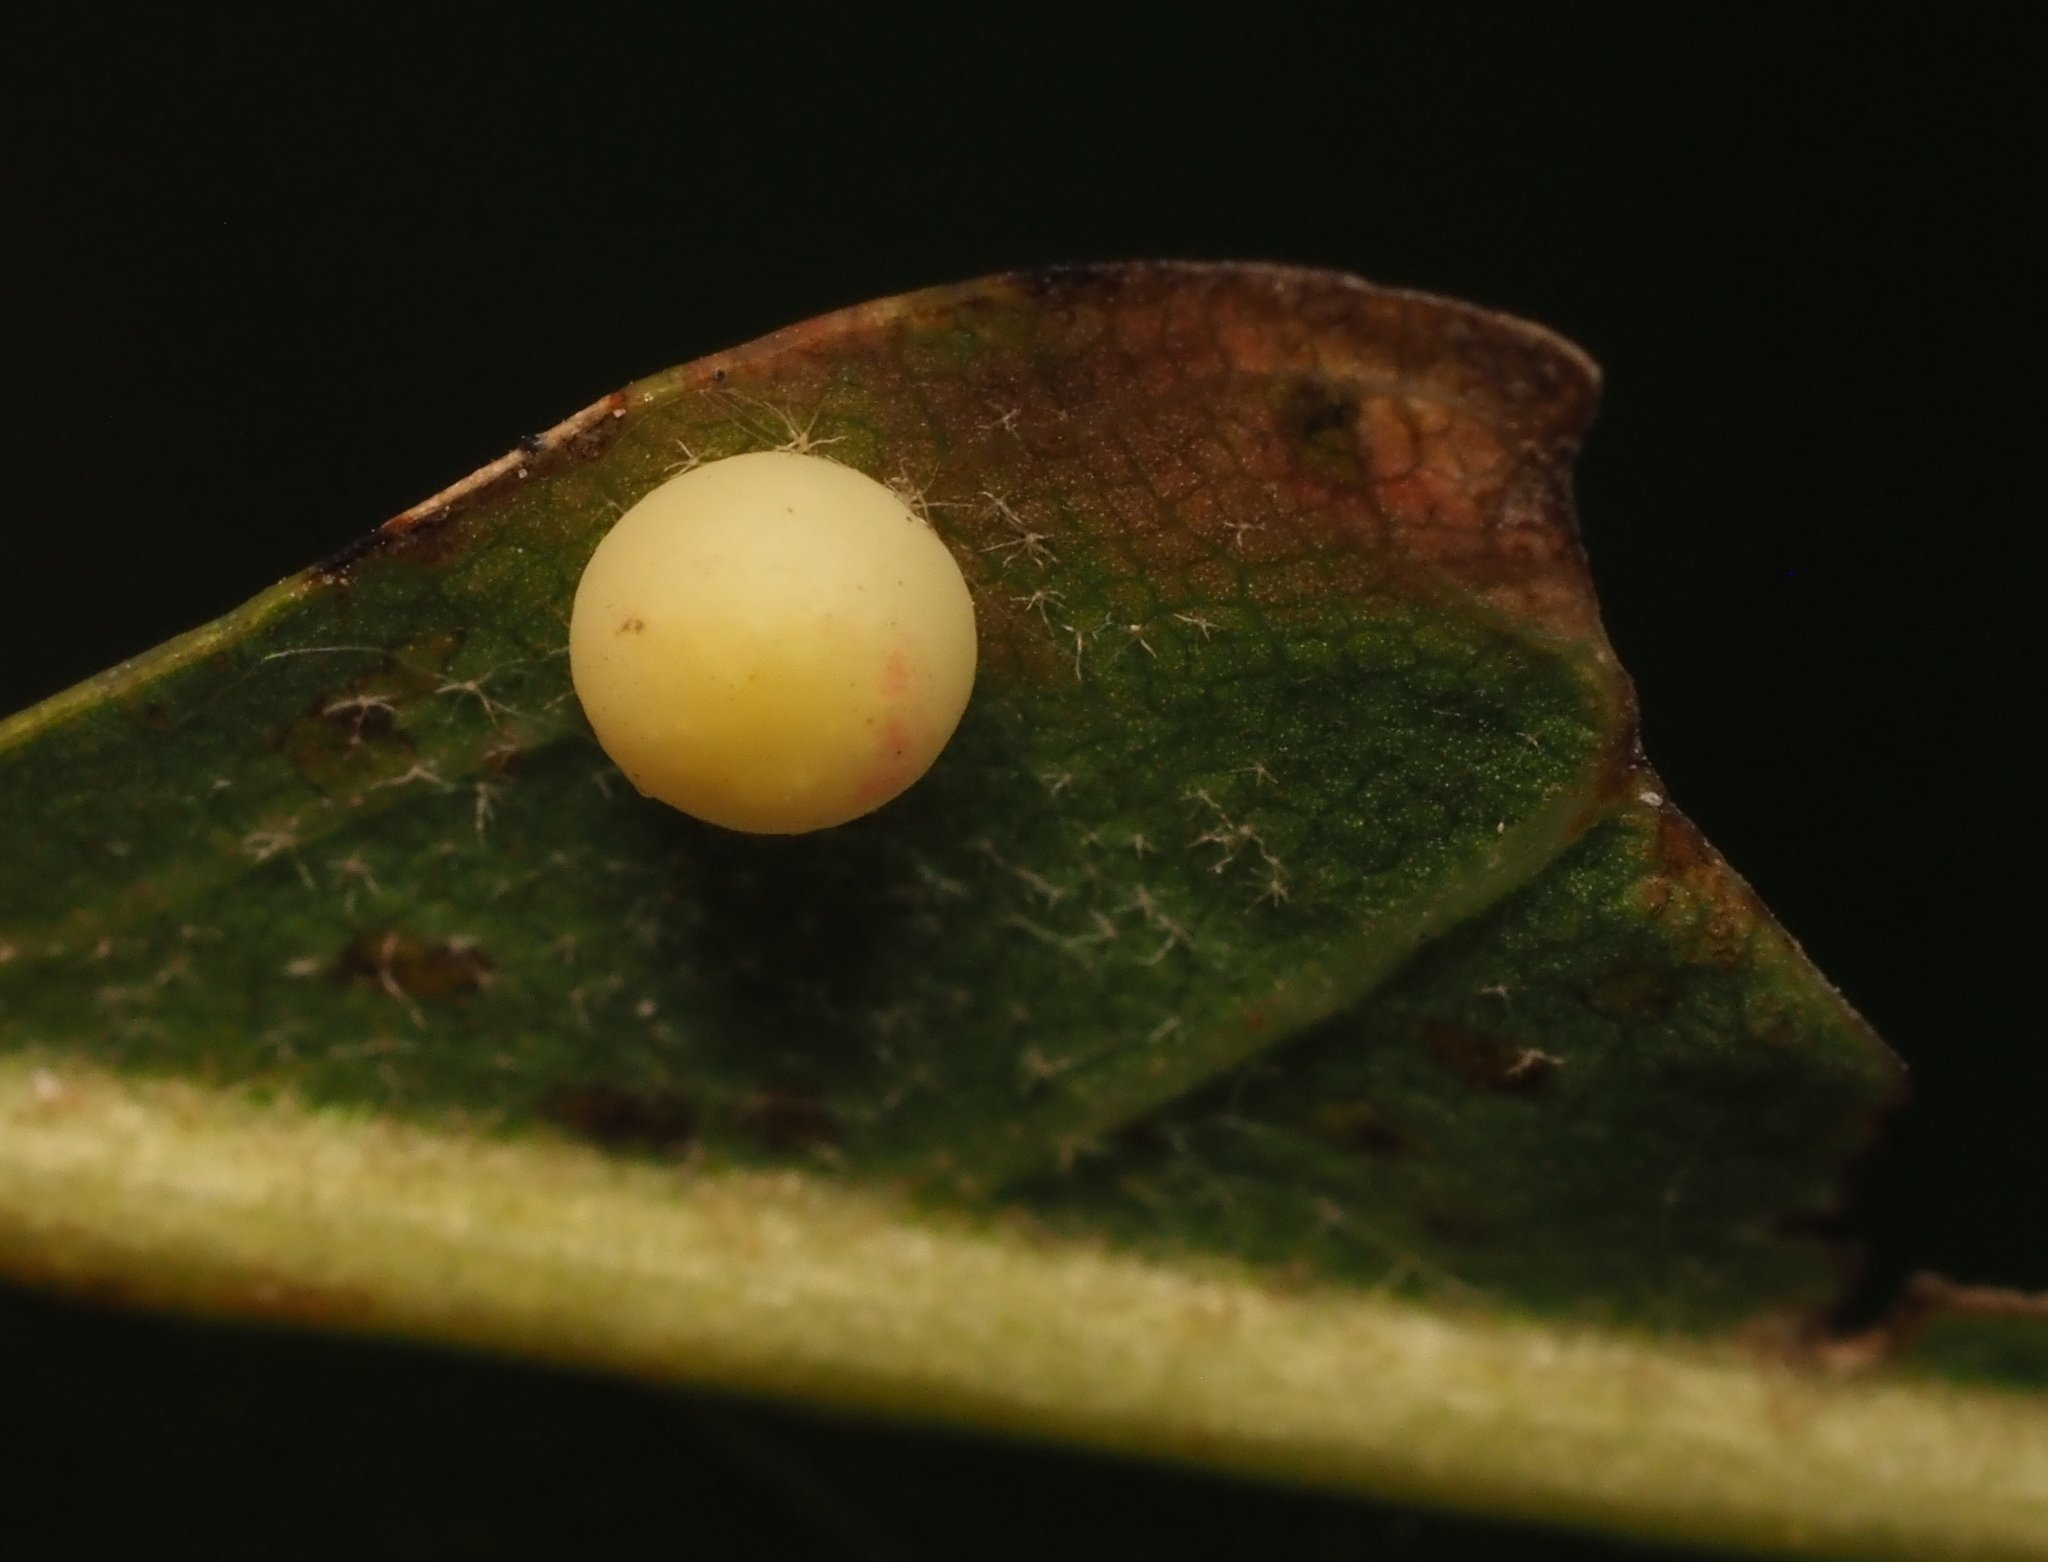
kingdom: Animalia
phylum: Arthropoda
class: Insecta
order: Hymenoptera
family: Cynipidae
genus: Zopheroteras
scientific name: Zopheroteras
